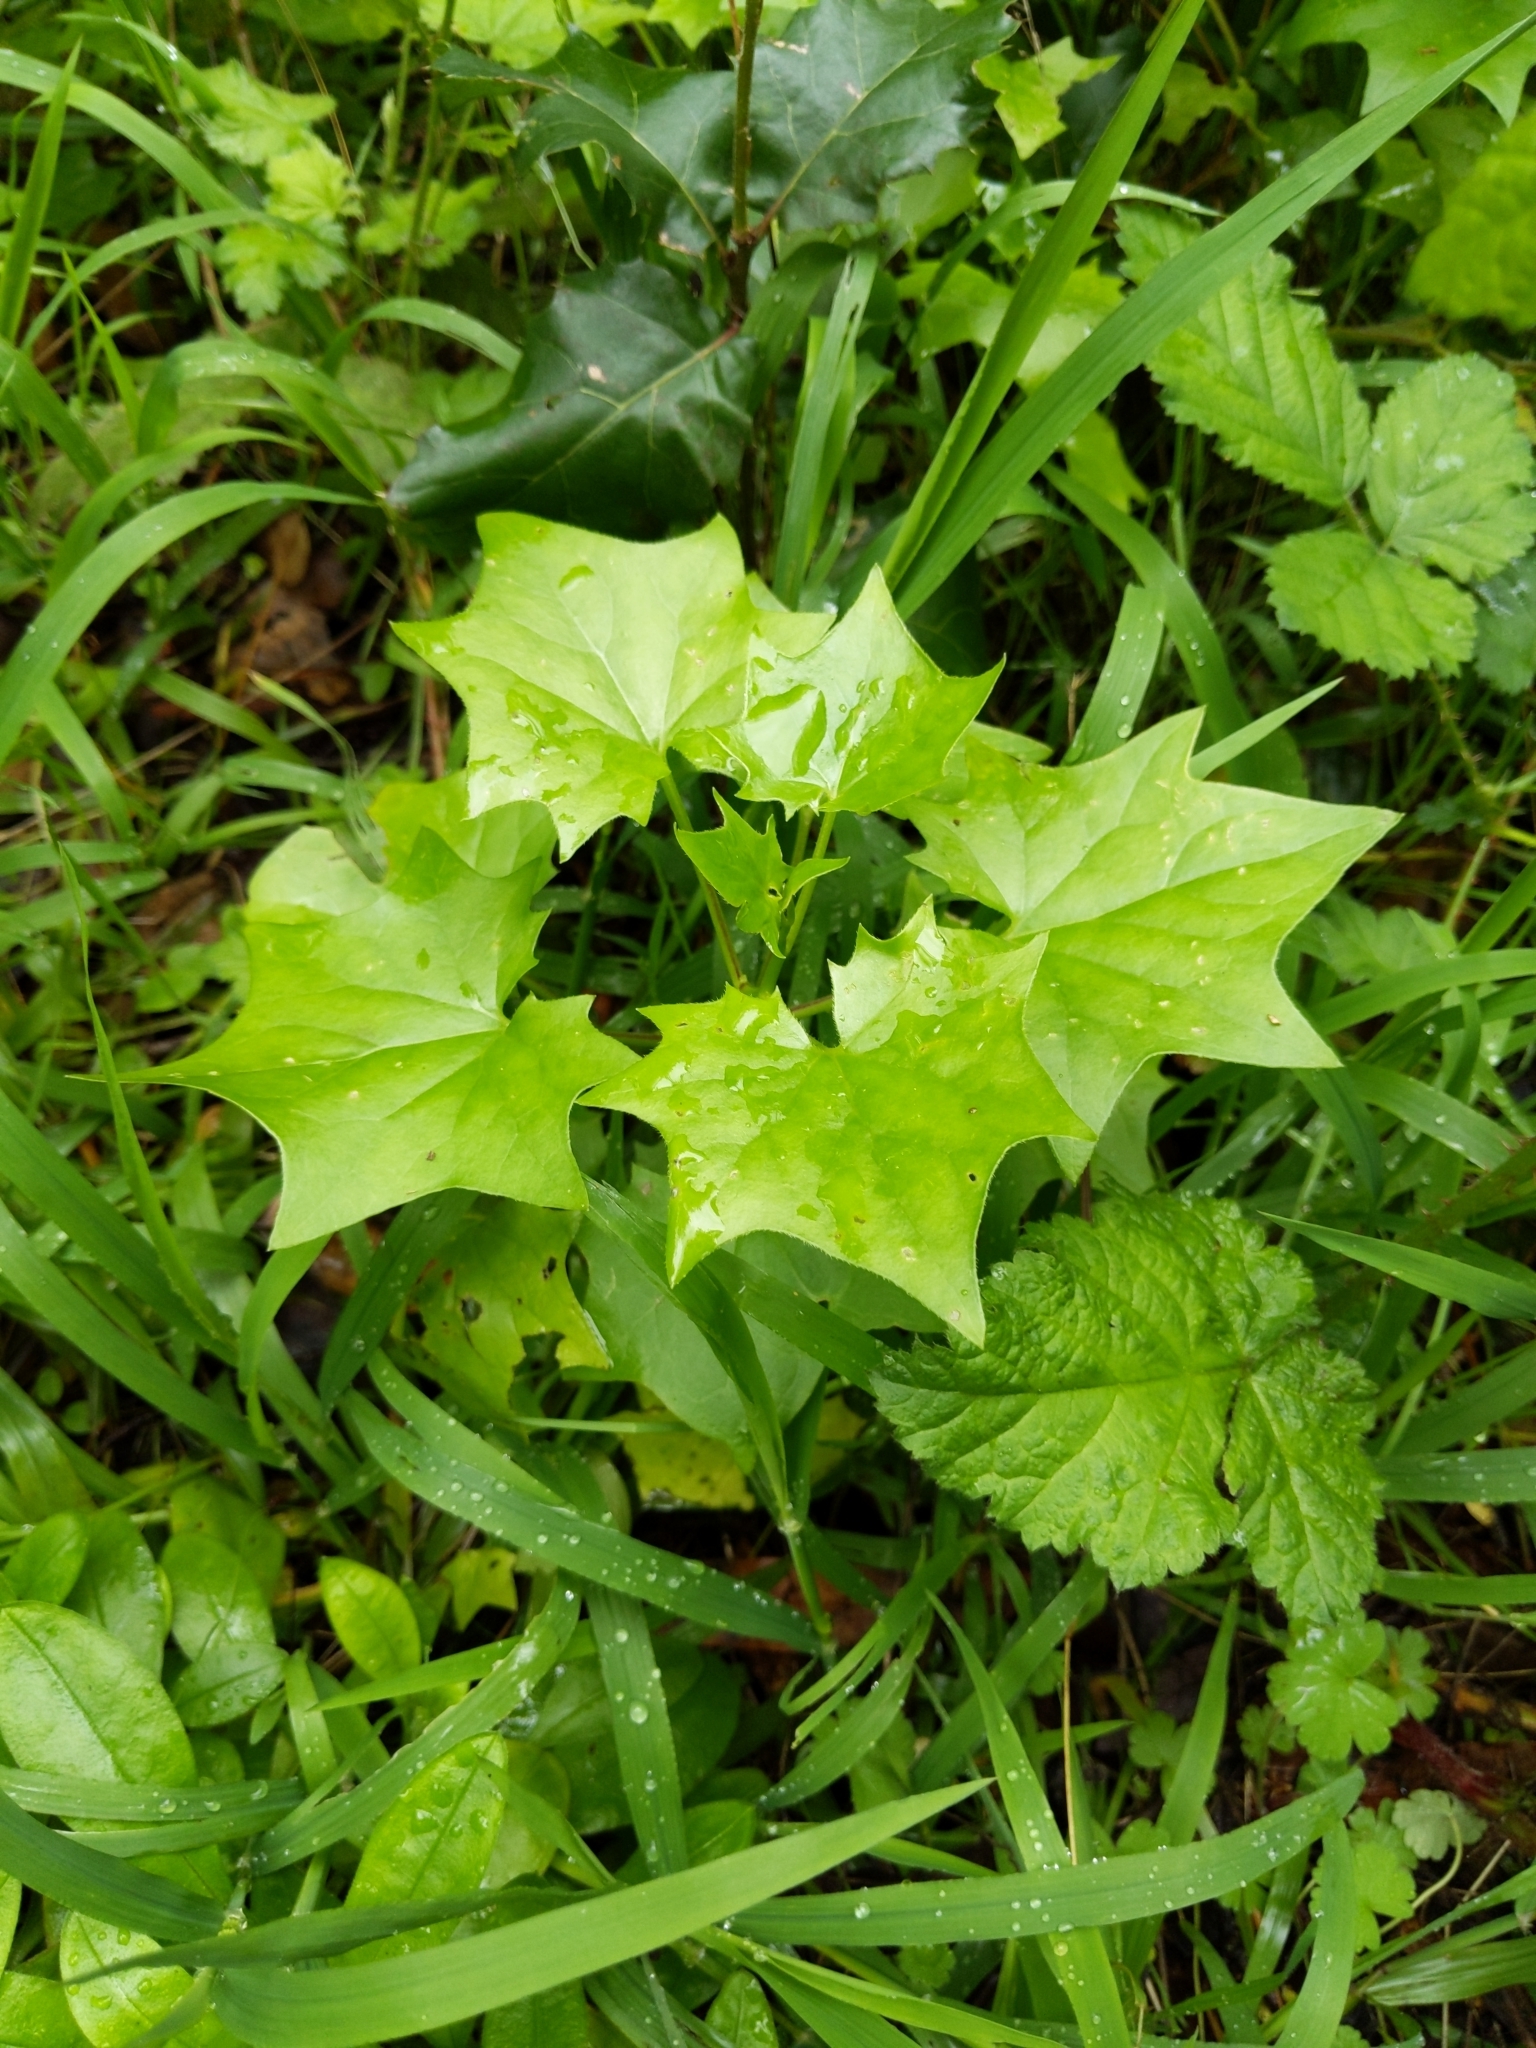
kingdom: Plantae
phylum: Tracheophyta
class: Magnoliopsida
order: Asterales
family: Asteraceae
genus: Delairea
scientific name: Delairea odorata
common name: Cape-ivy
